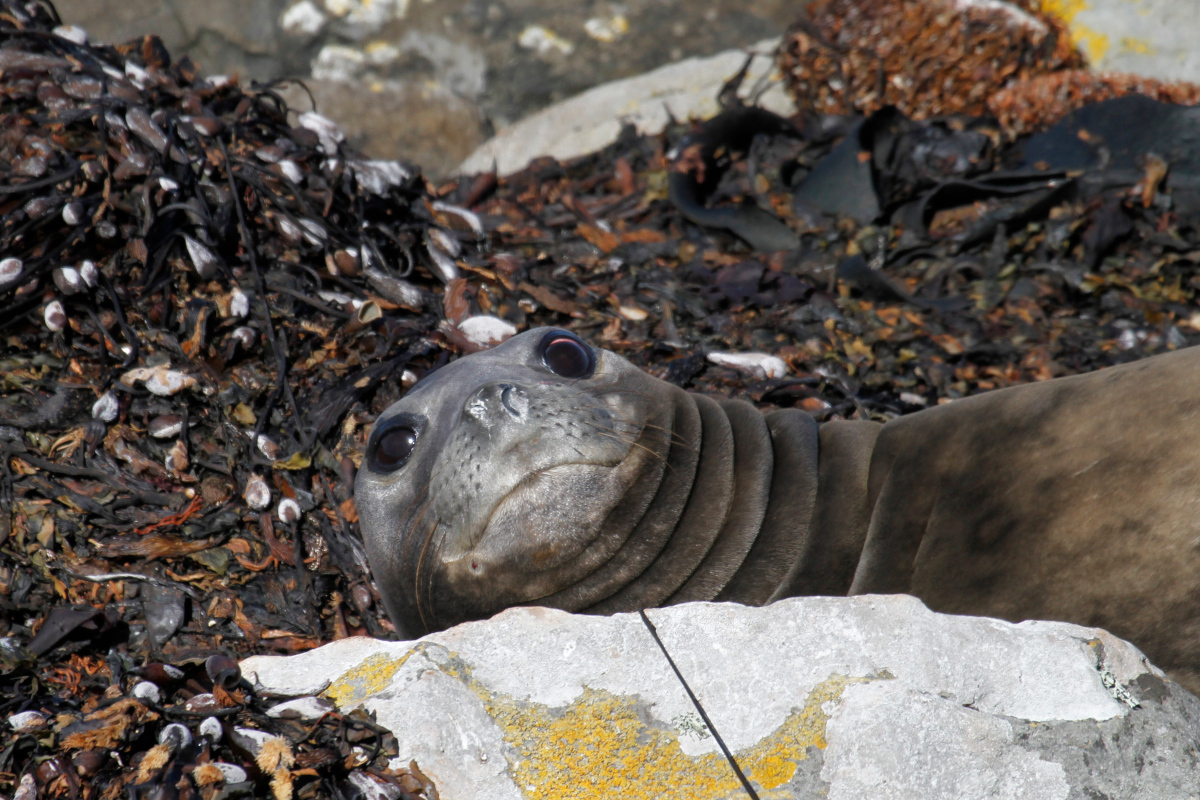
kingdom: Animalia
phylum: Chordata
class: Mammalia
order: Carnivora
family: Phocidae
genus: Mirounga
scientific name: Mirounga leonina
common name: Southern elephant seal
